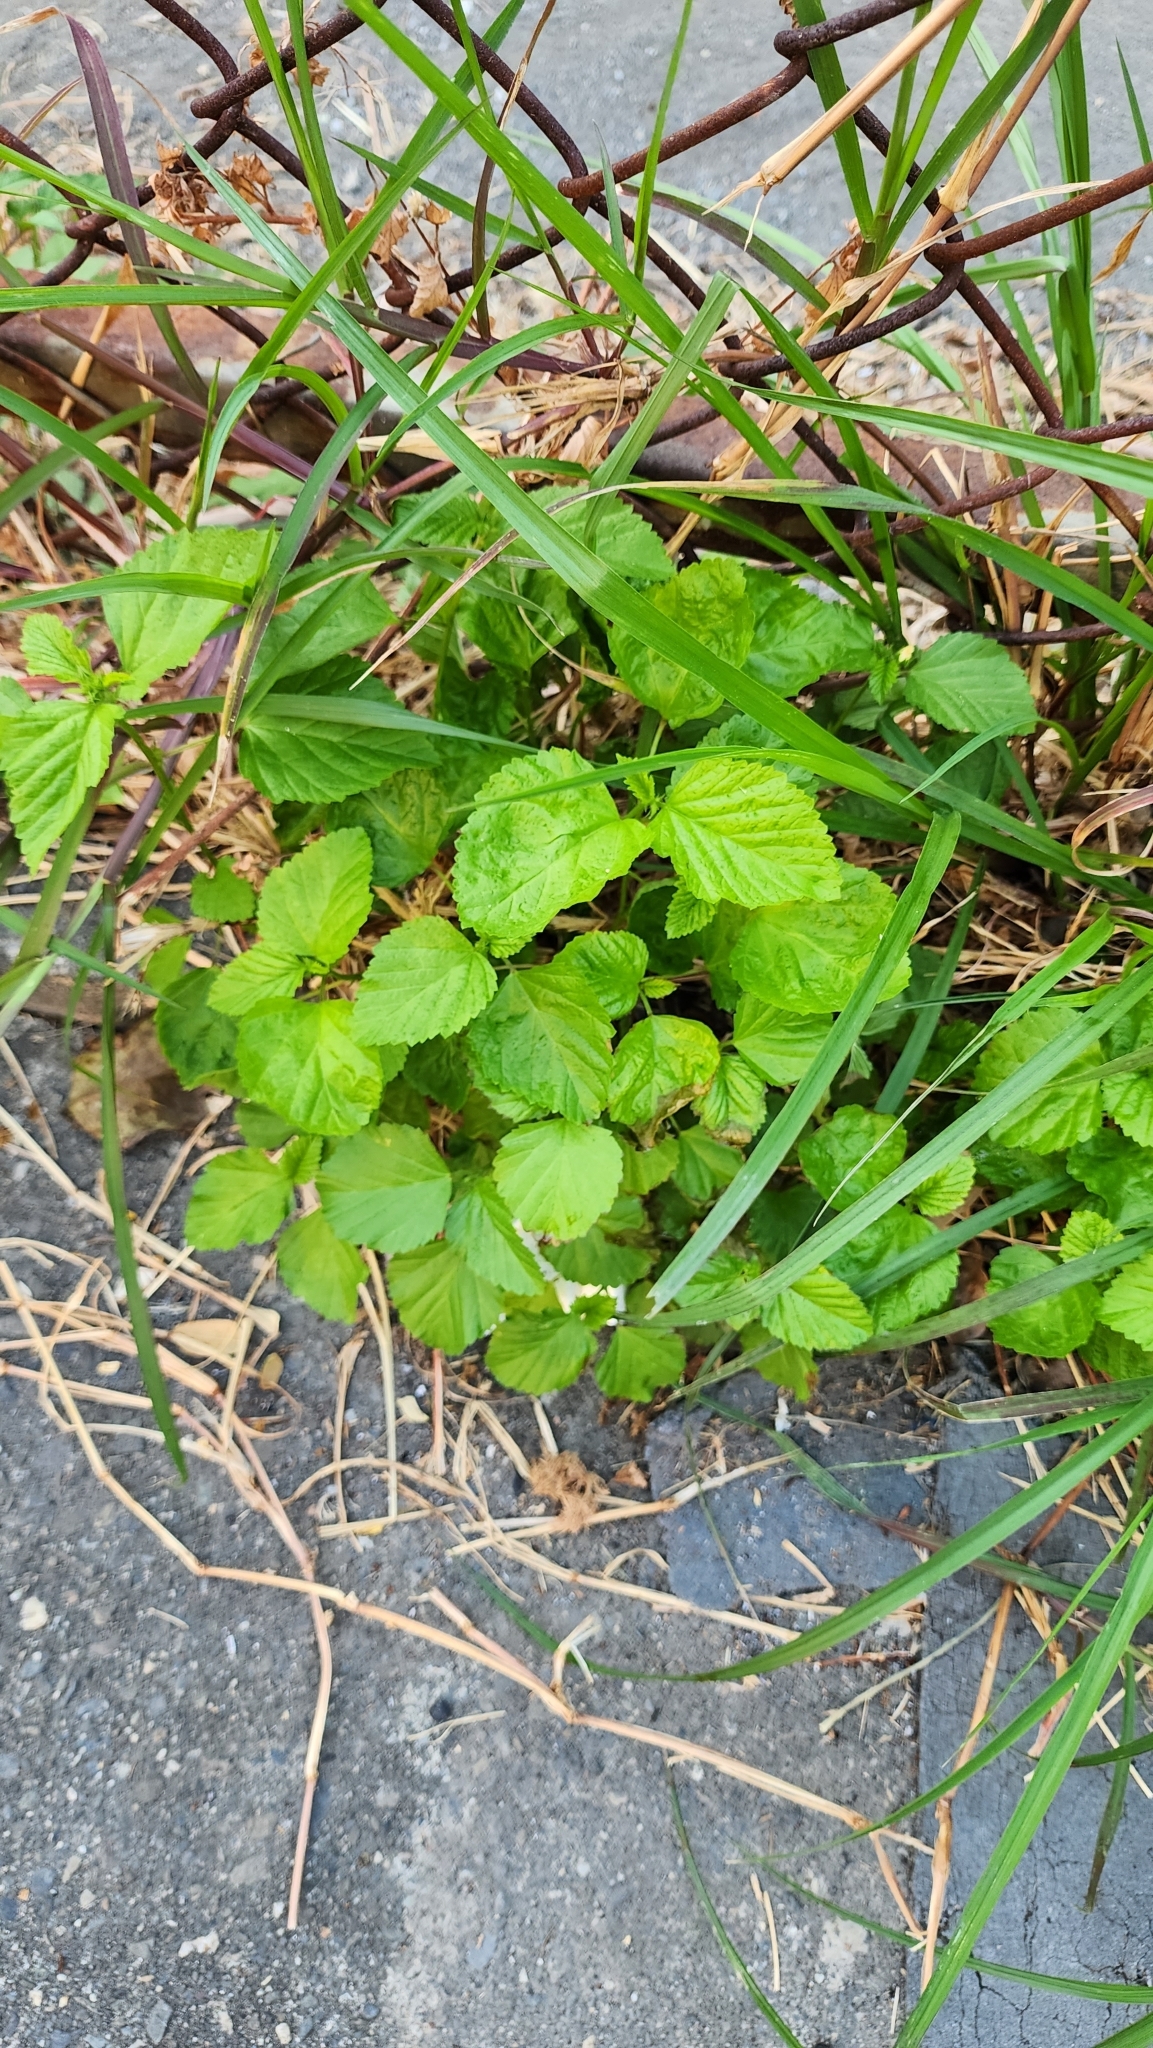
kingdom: Plantae
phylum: Tracheophyta
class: Magnoliopsida
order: Malvales
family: Malvaceae
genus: Malvastrum
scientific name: Malvastrum coromandelianum
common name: Threelobe false mallow
